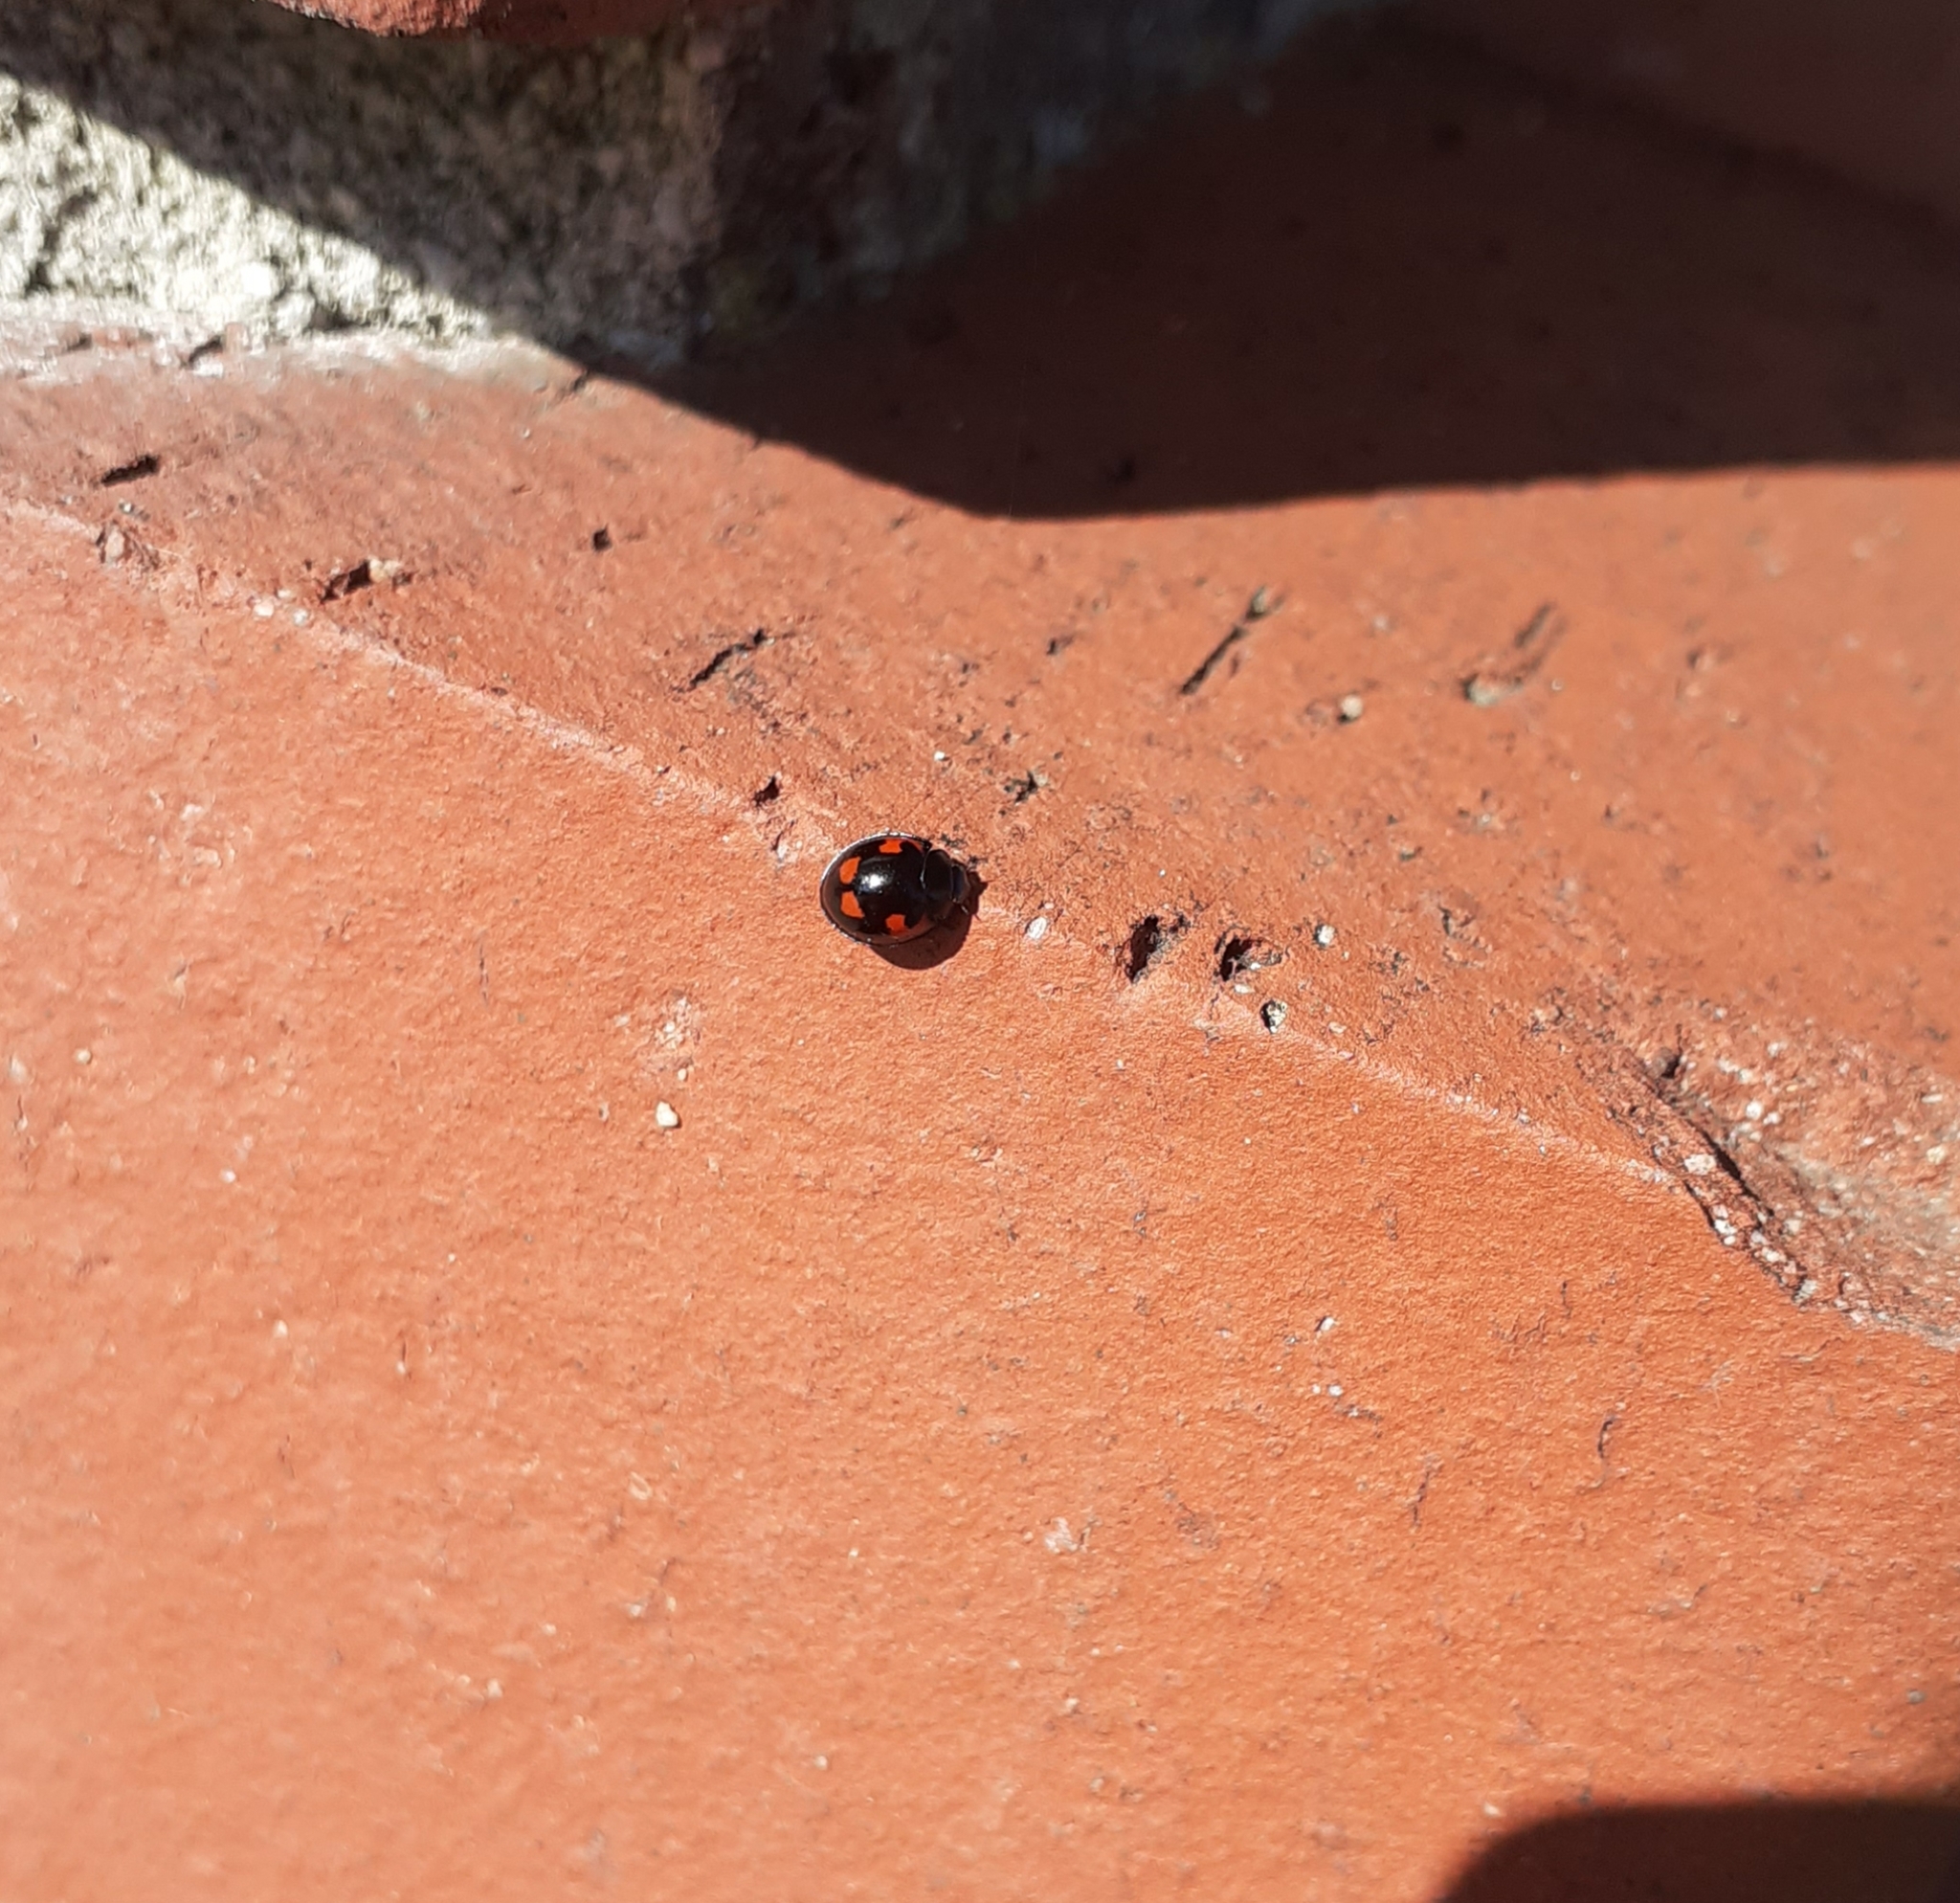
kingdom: Animalia
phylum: Arthropoda
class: Insecta
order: Coleoptera
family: Coccinellidae
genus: Brumus
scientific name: Brumus quadripustulatus
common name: Ladybird beetle
